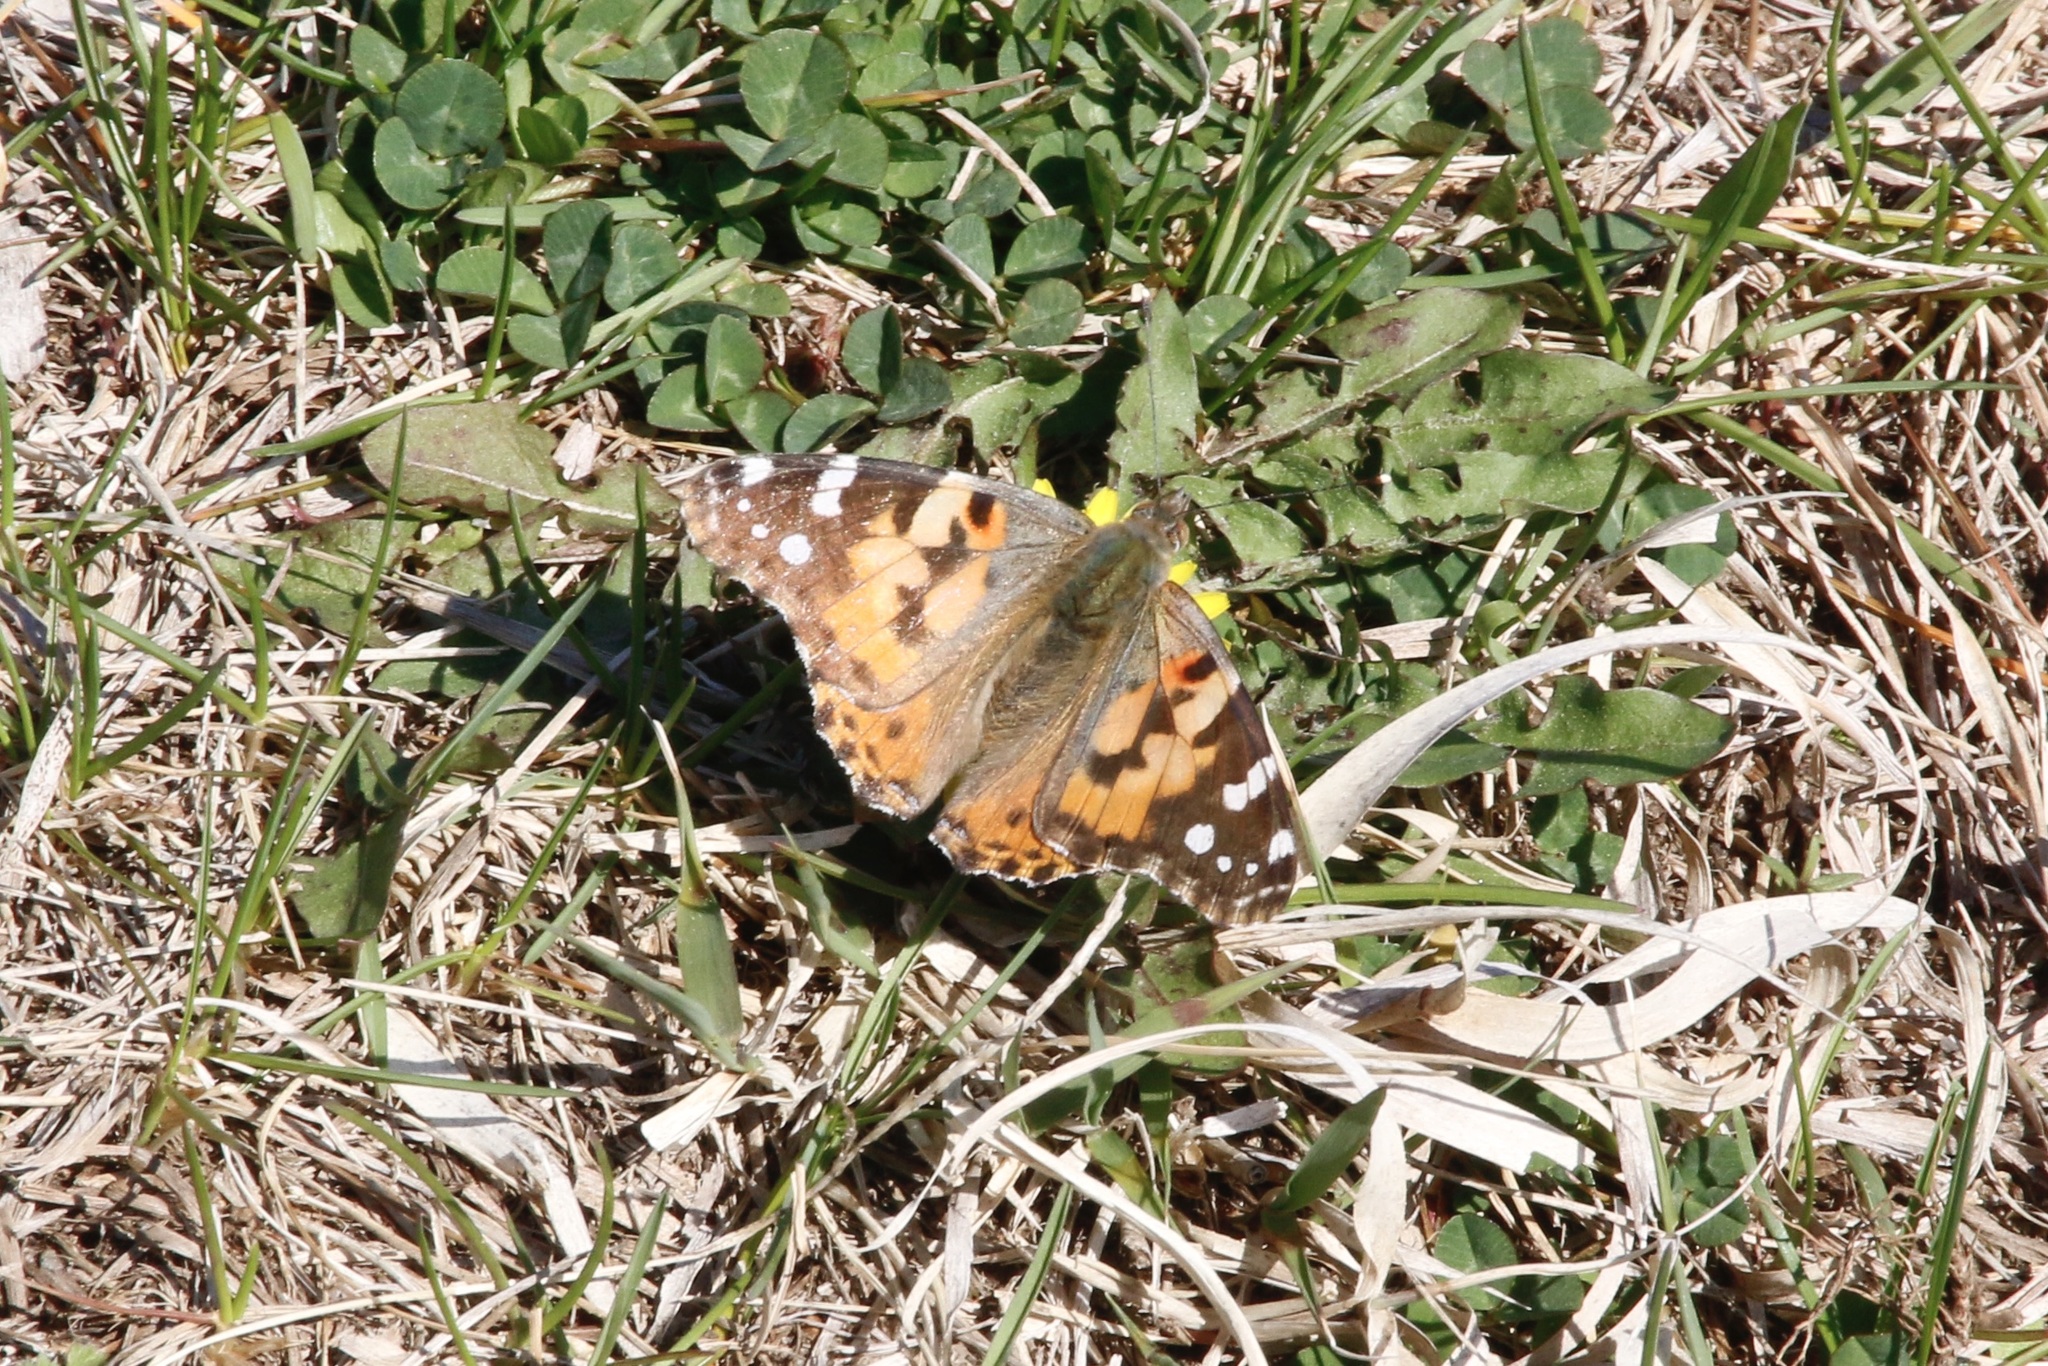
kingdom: Animalia
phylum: Arthropoda
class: Insecta
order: Lepidoptera
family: Nymphalidae
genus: Vanessa
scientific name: Vanessa cardui
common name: Painted lady
